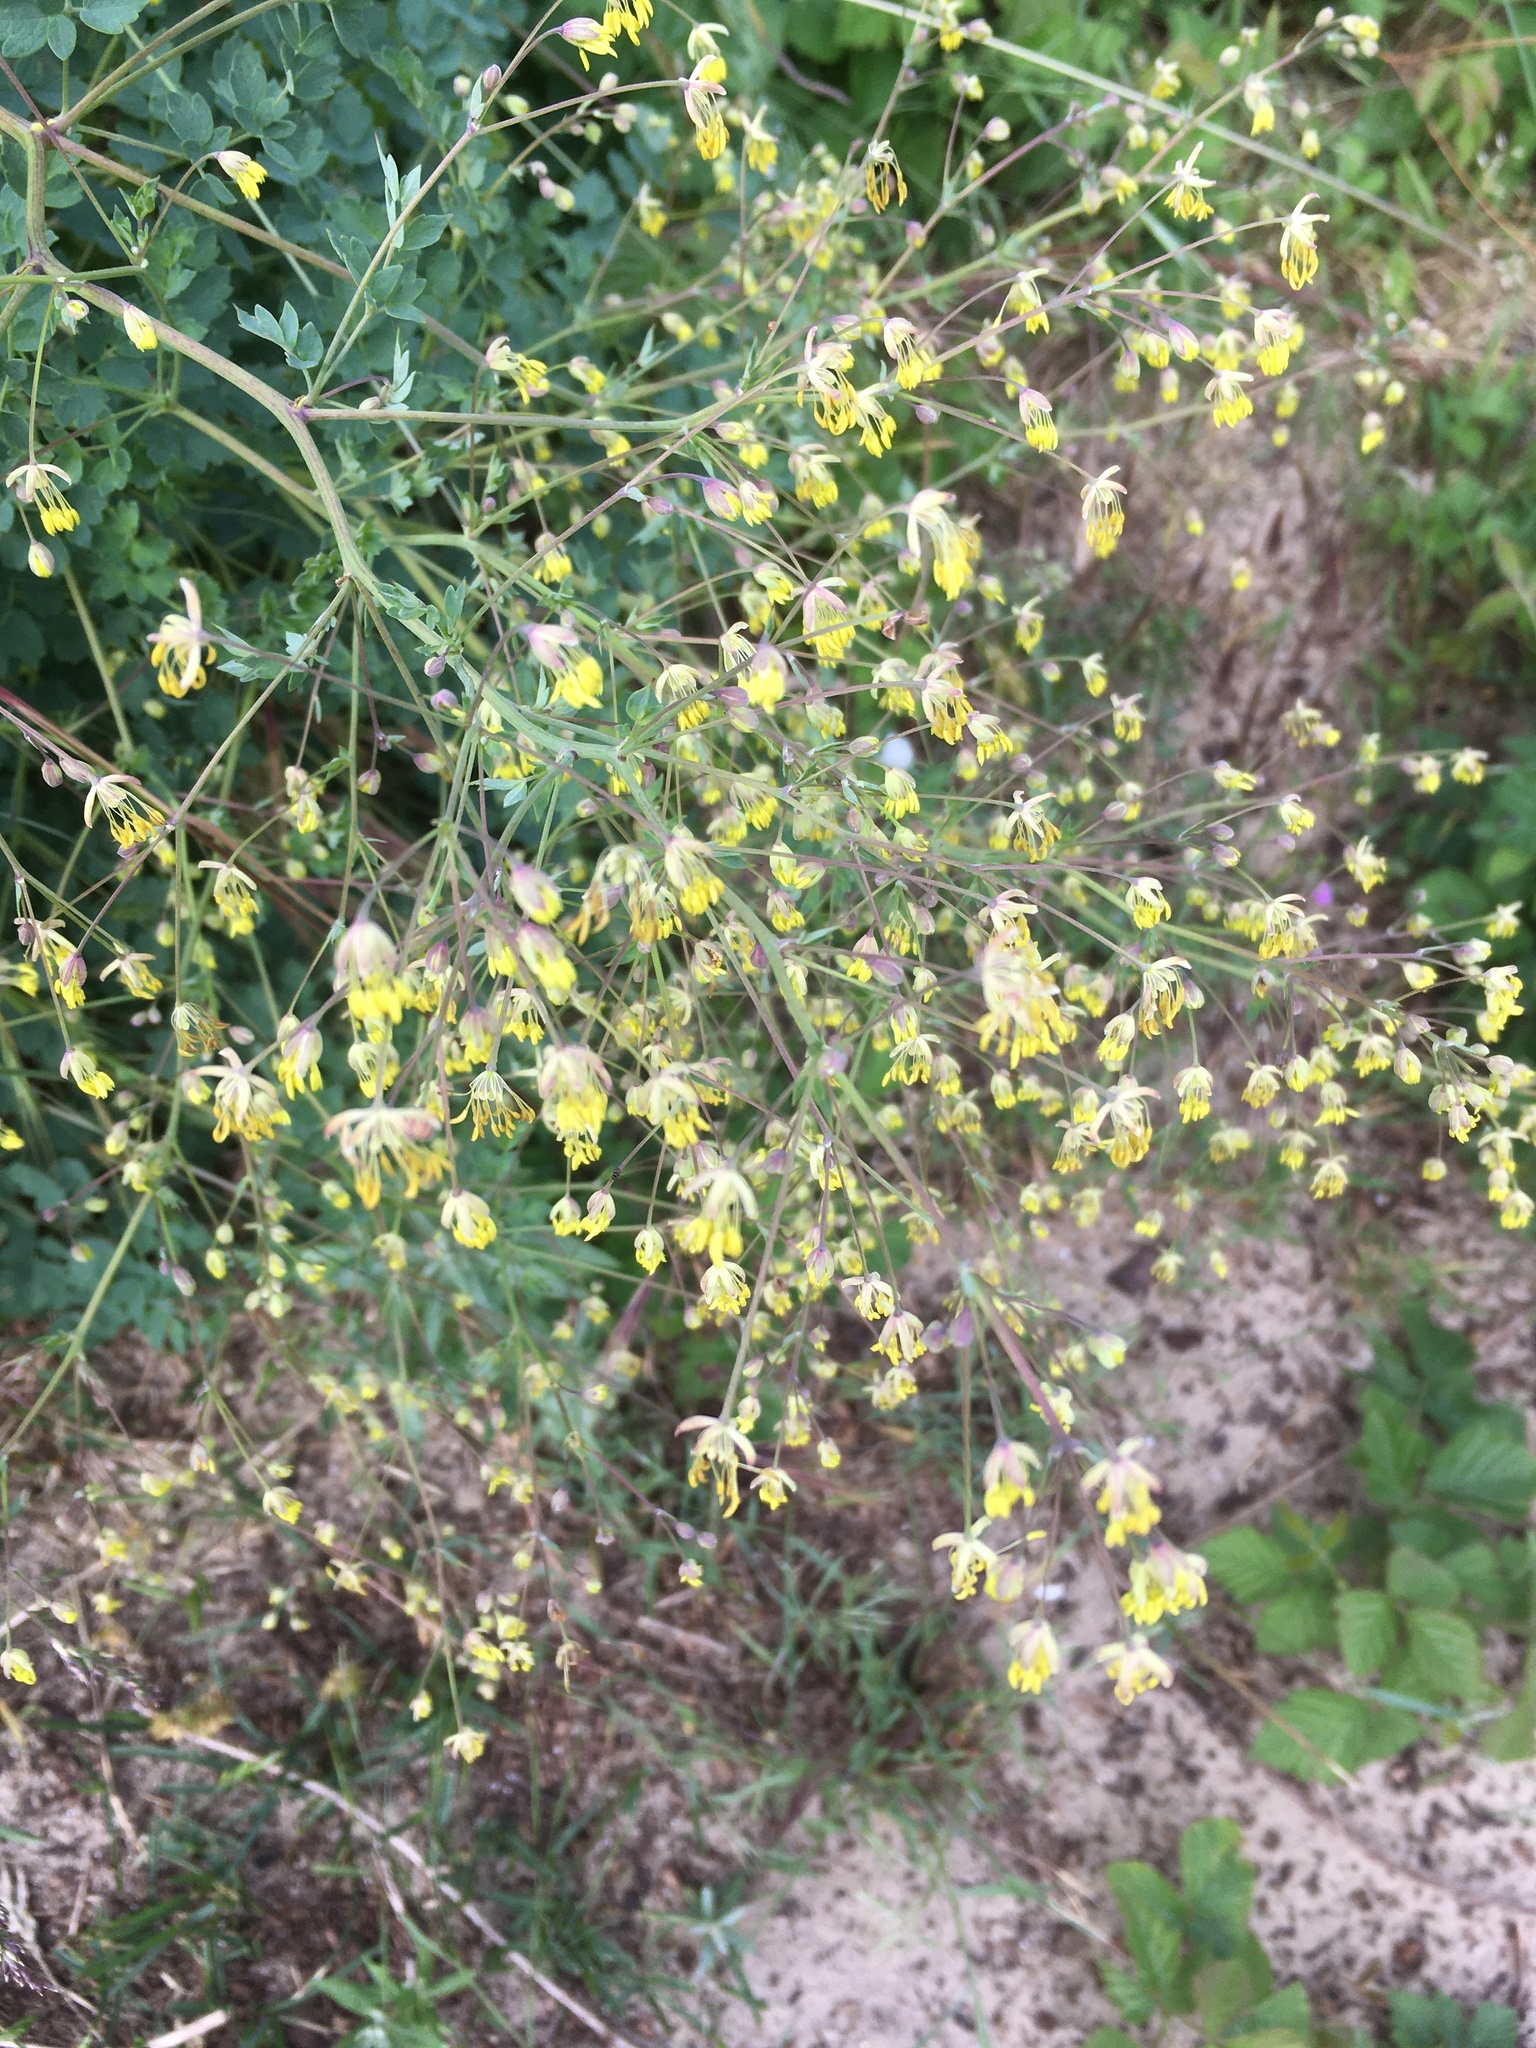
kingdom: Plantae
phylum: Tracheophyta
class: Magnoliopsida
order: Ranunculales
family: Ranunculaceae
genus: Thalictrum
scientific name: Thalictrum minus
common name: Lesser meadow-rue
